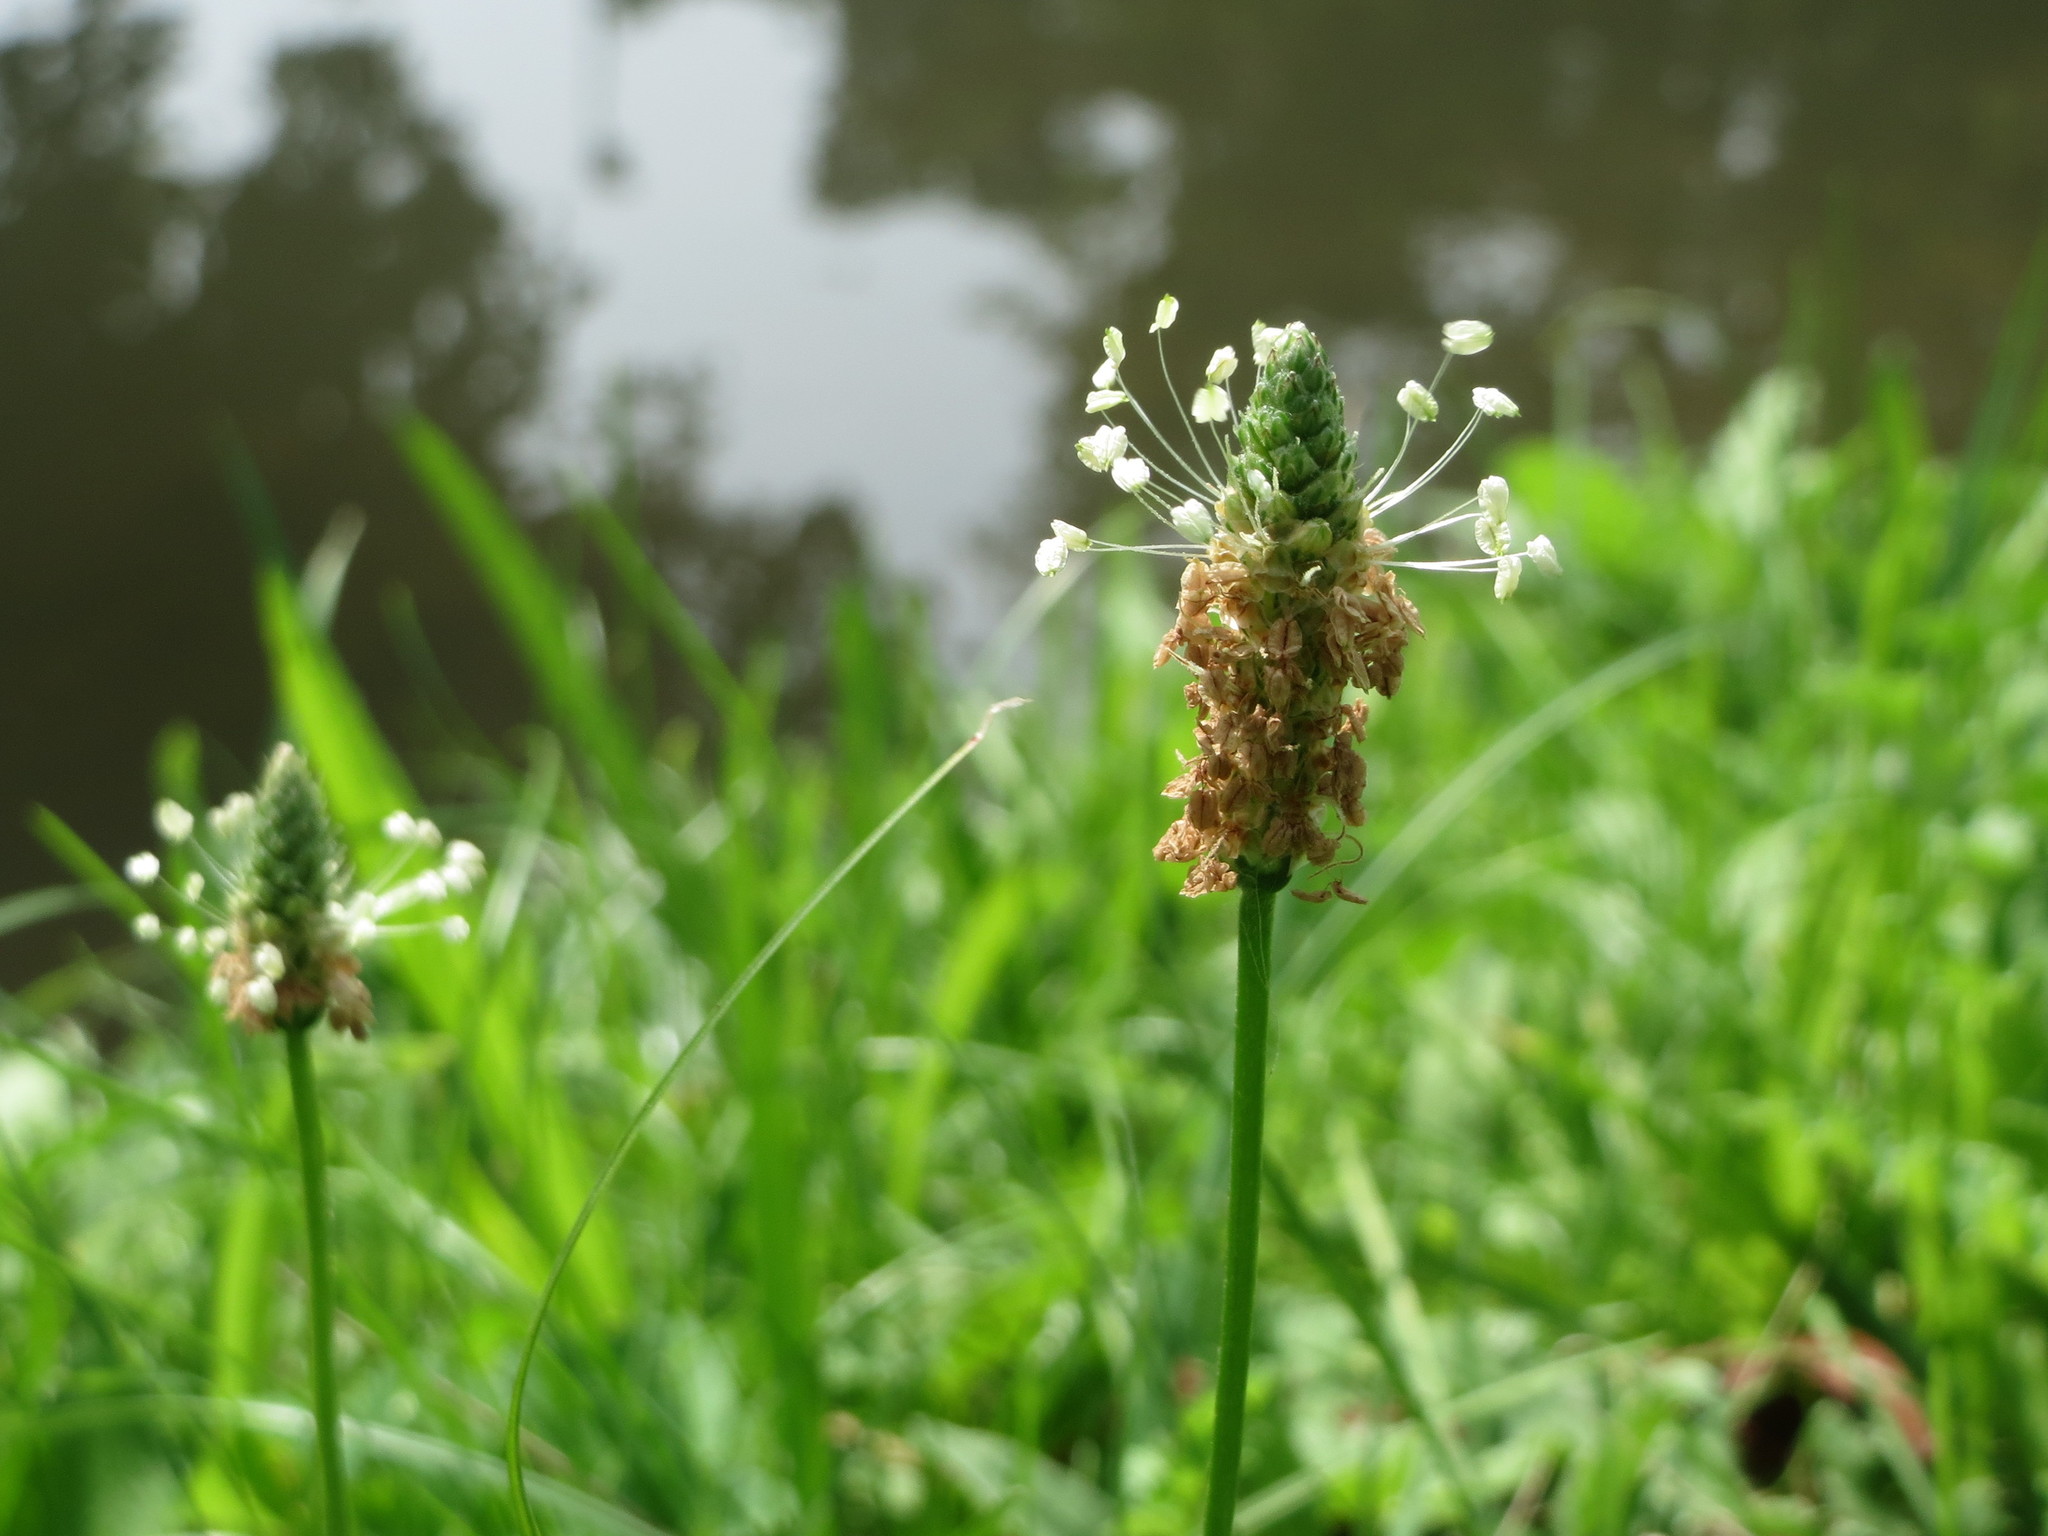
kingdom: Plantae
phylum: Tracheophyta
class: Magnoliopsida
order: Lamiales
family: Plantaginaceae
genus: Plantago
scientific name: Plantago lanceolata
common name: Ribwort plantain
